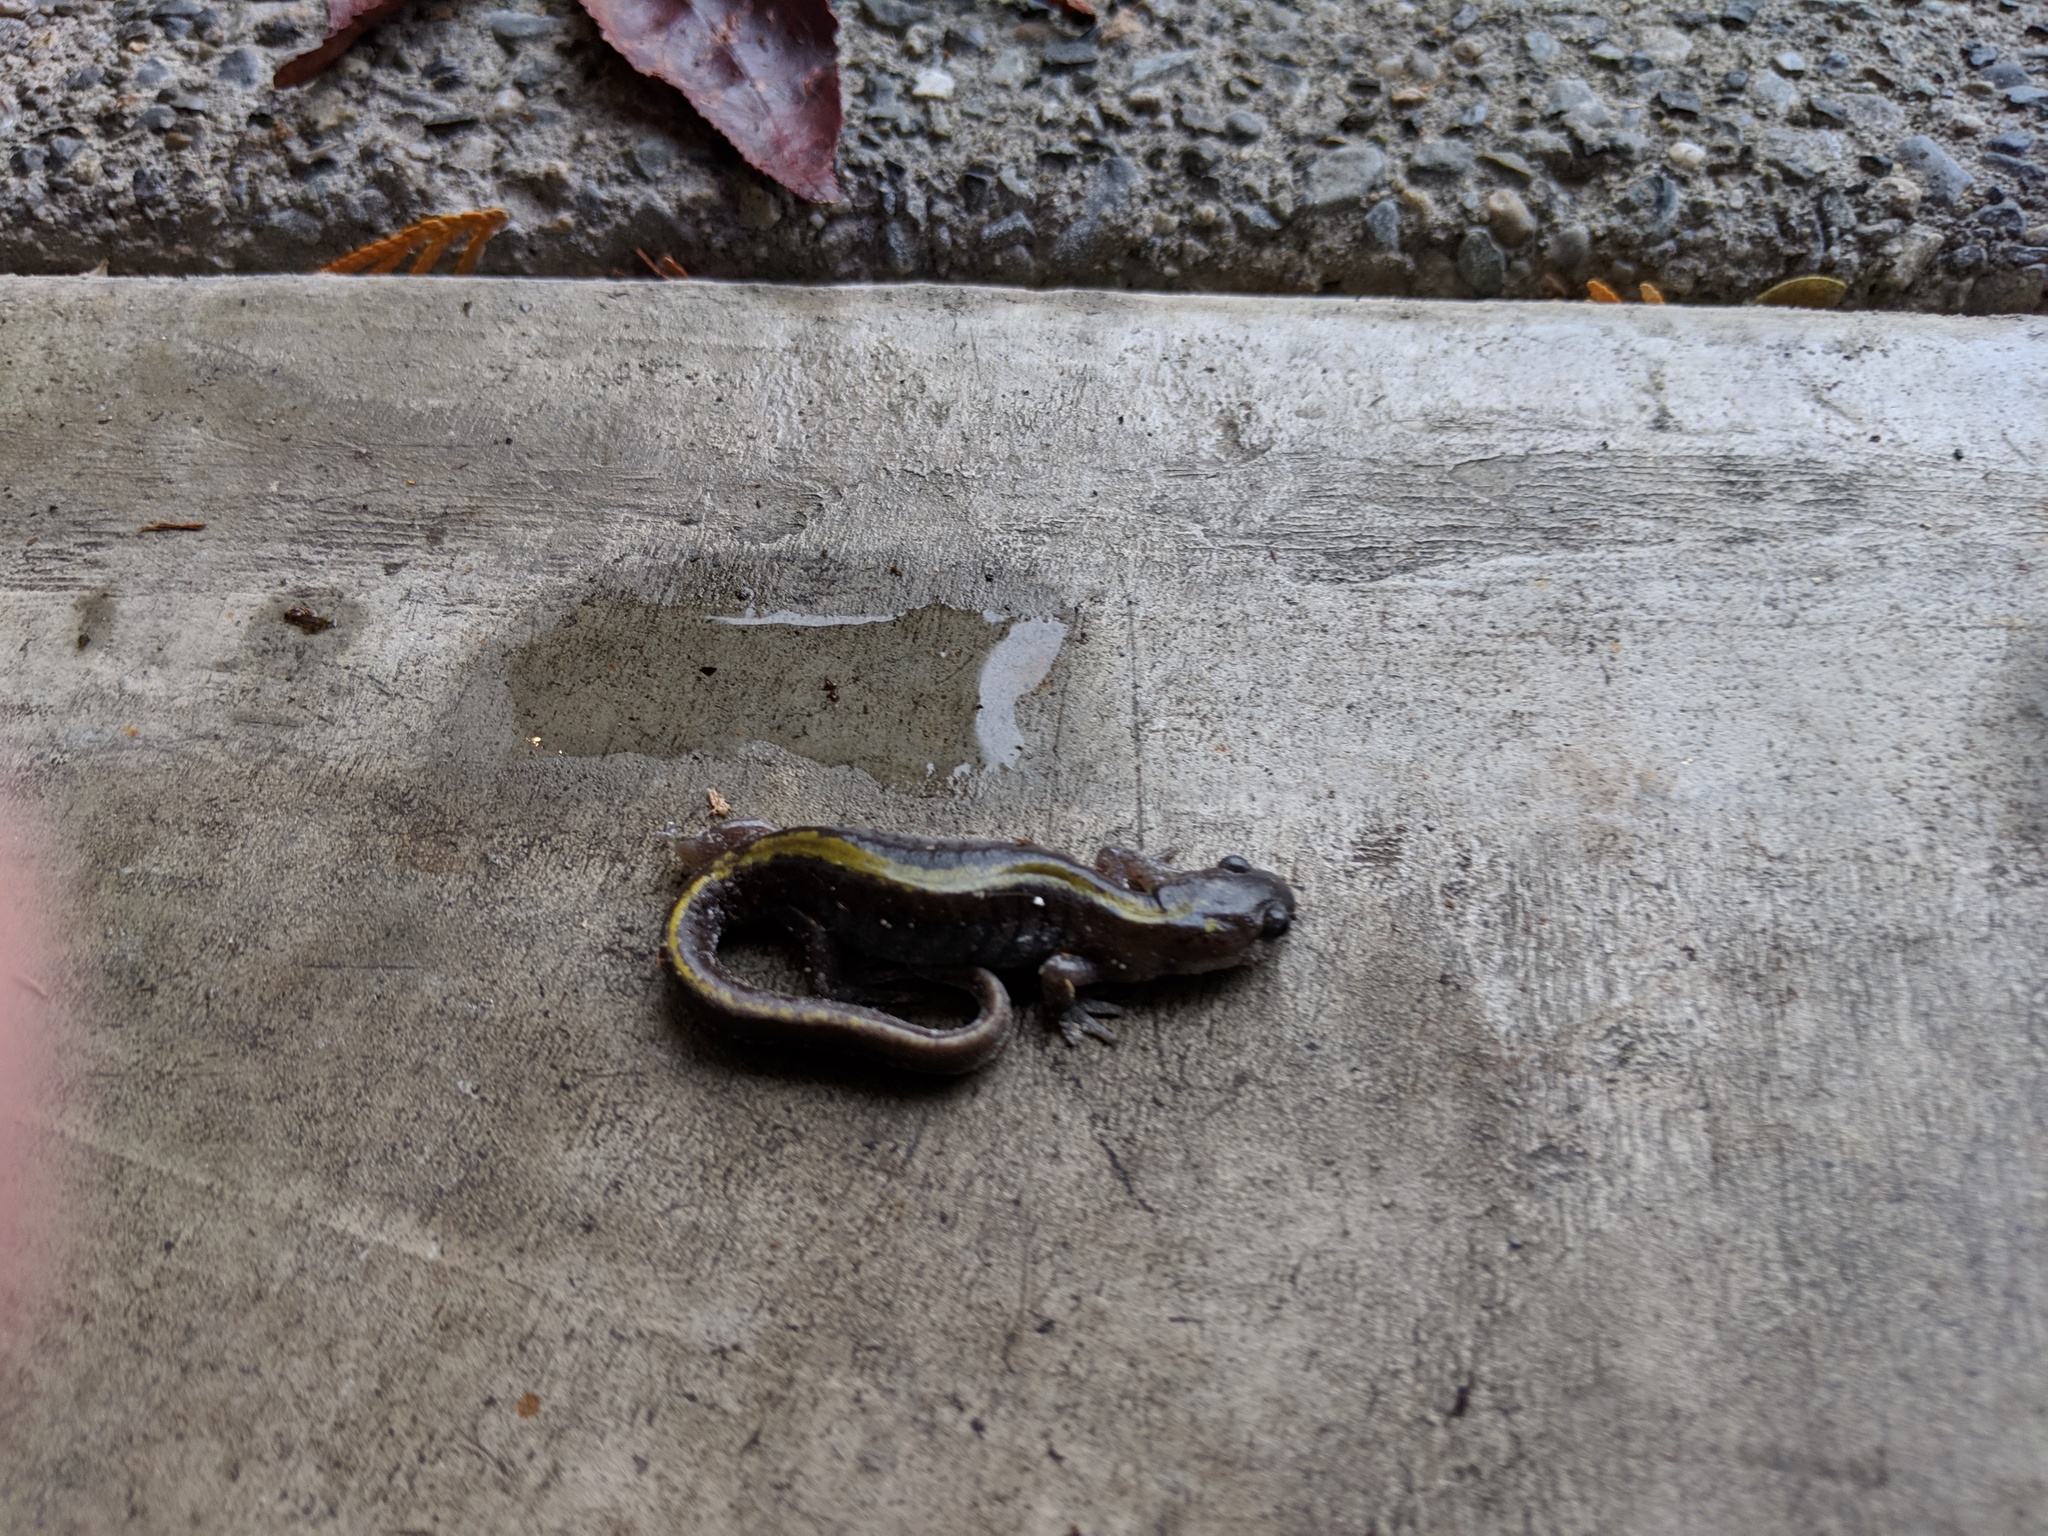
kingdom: Animalia
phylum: Chordata
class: Amphibia
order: Caudata
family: Ambystomatidae
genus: Ambystoma
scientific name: Ambystoma macrodactylum
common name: Long-toed salamander
